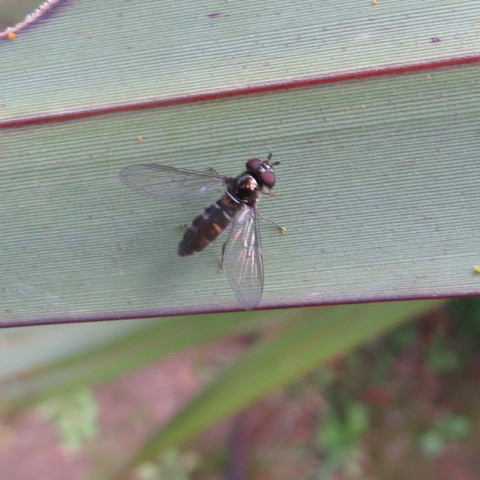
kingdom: Animalia
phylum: Arthropoda
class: Insecta
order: Diptera
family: Syrphidae
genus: Melangyna
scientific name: Melangyna novaezelandiae
